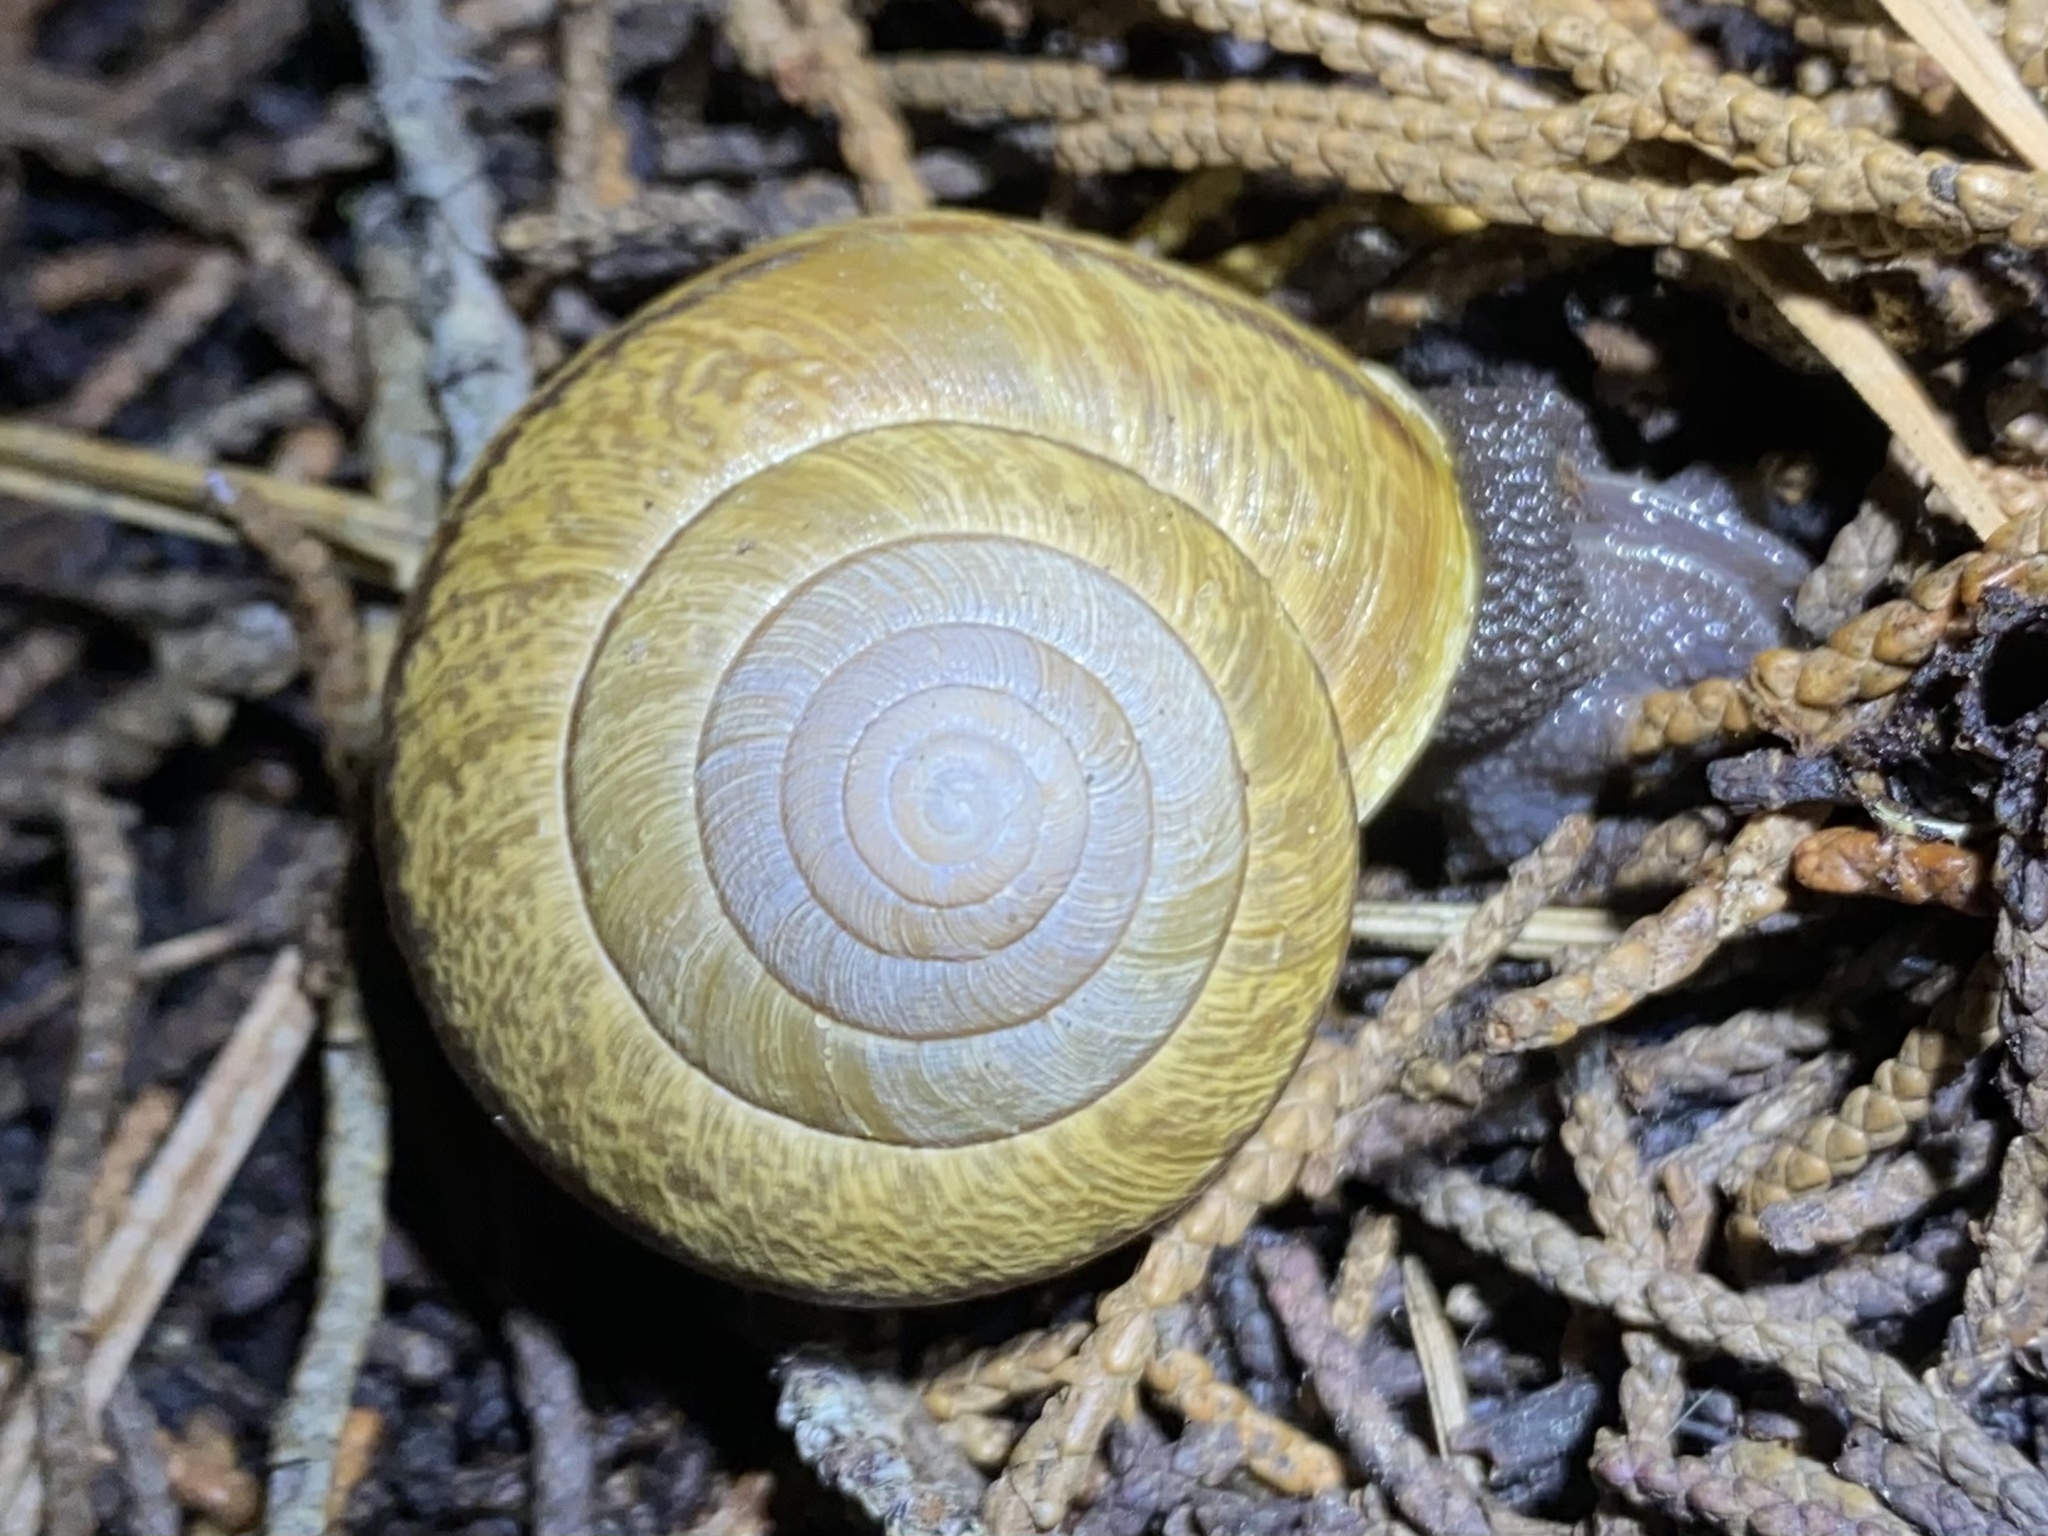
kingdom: Animalia
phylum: Mollusca
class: Gastropoda
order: Stylommatophora
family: Xanthonychidae
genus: Helminthoglypta
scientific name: Helminthoglypta arrosa
